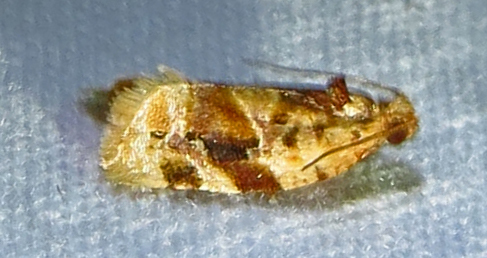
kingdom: Animalia
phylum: Arthropoda
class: Insecta
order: Lepidoptera
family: Tortricidae
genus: Argyrotaenia
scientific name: Argyrotaenia velutinana
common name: Red-banded leafroller moth
